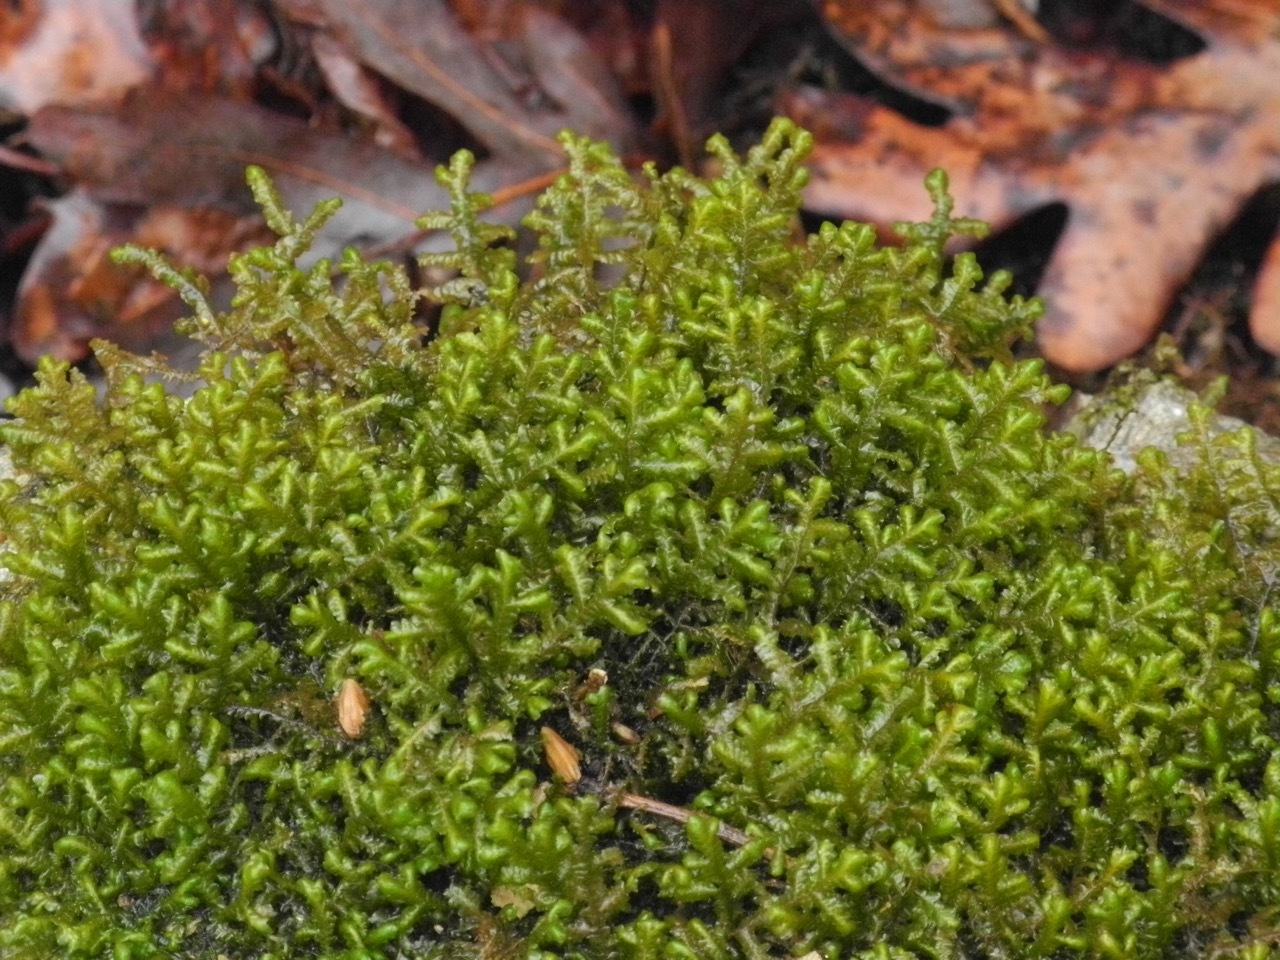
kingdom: Plantae
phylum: Marchantiophyta
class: Jungermanniopsida
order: Porellales
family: Porellaceae
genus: Porella
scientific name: Porella platyphylla
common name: Wall scalewort
